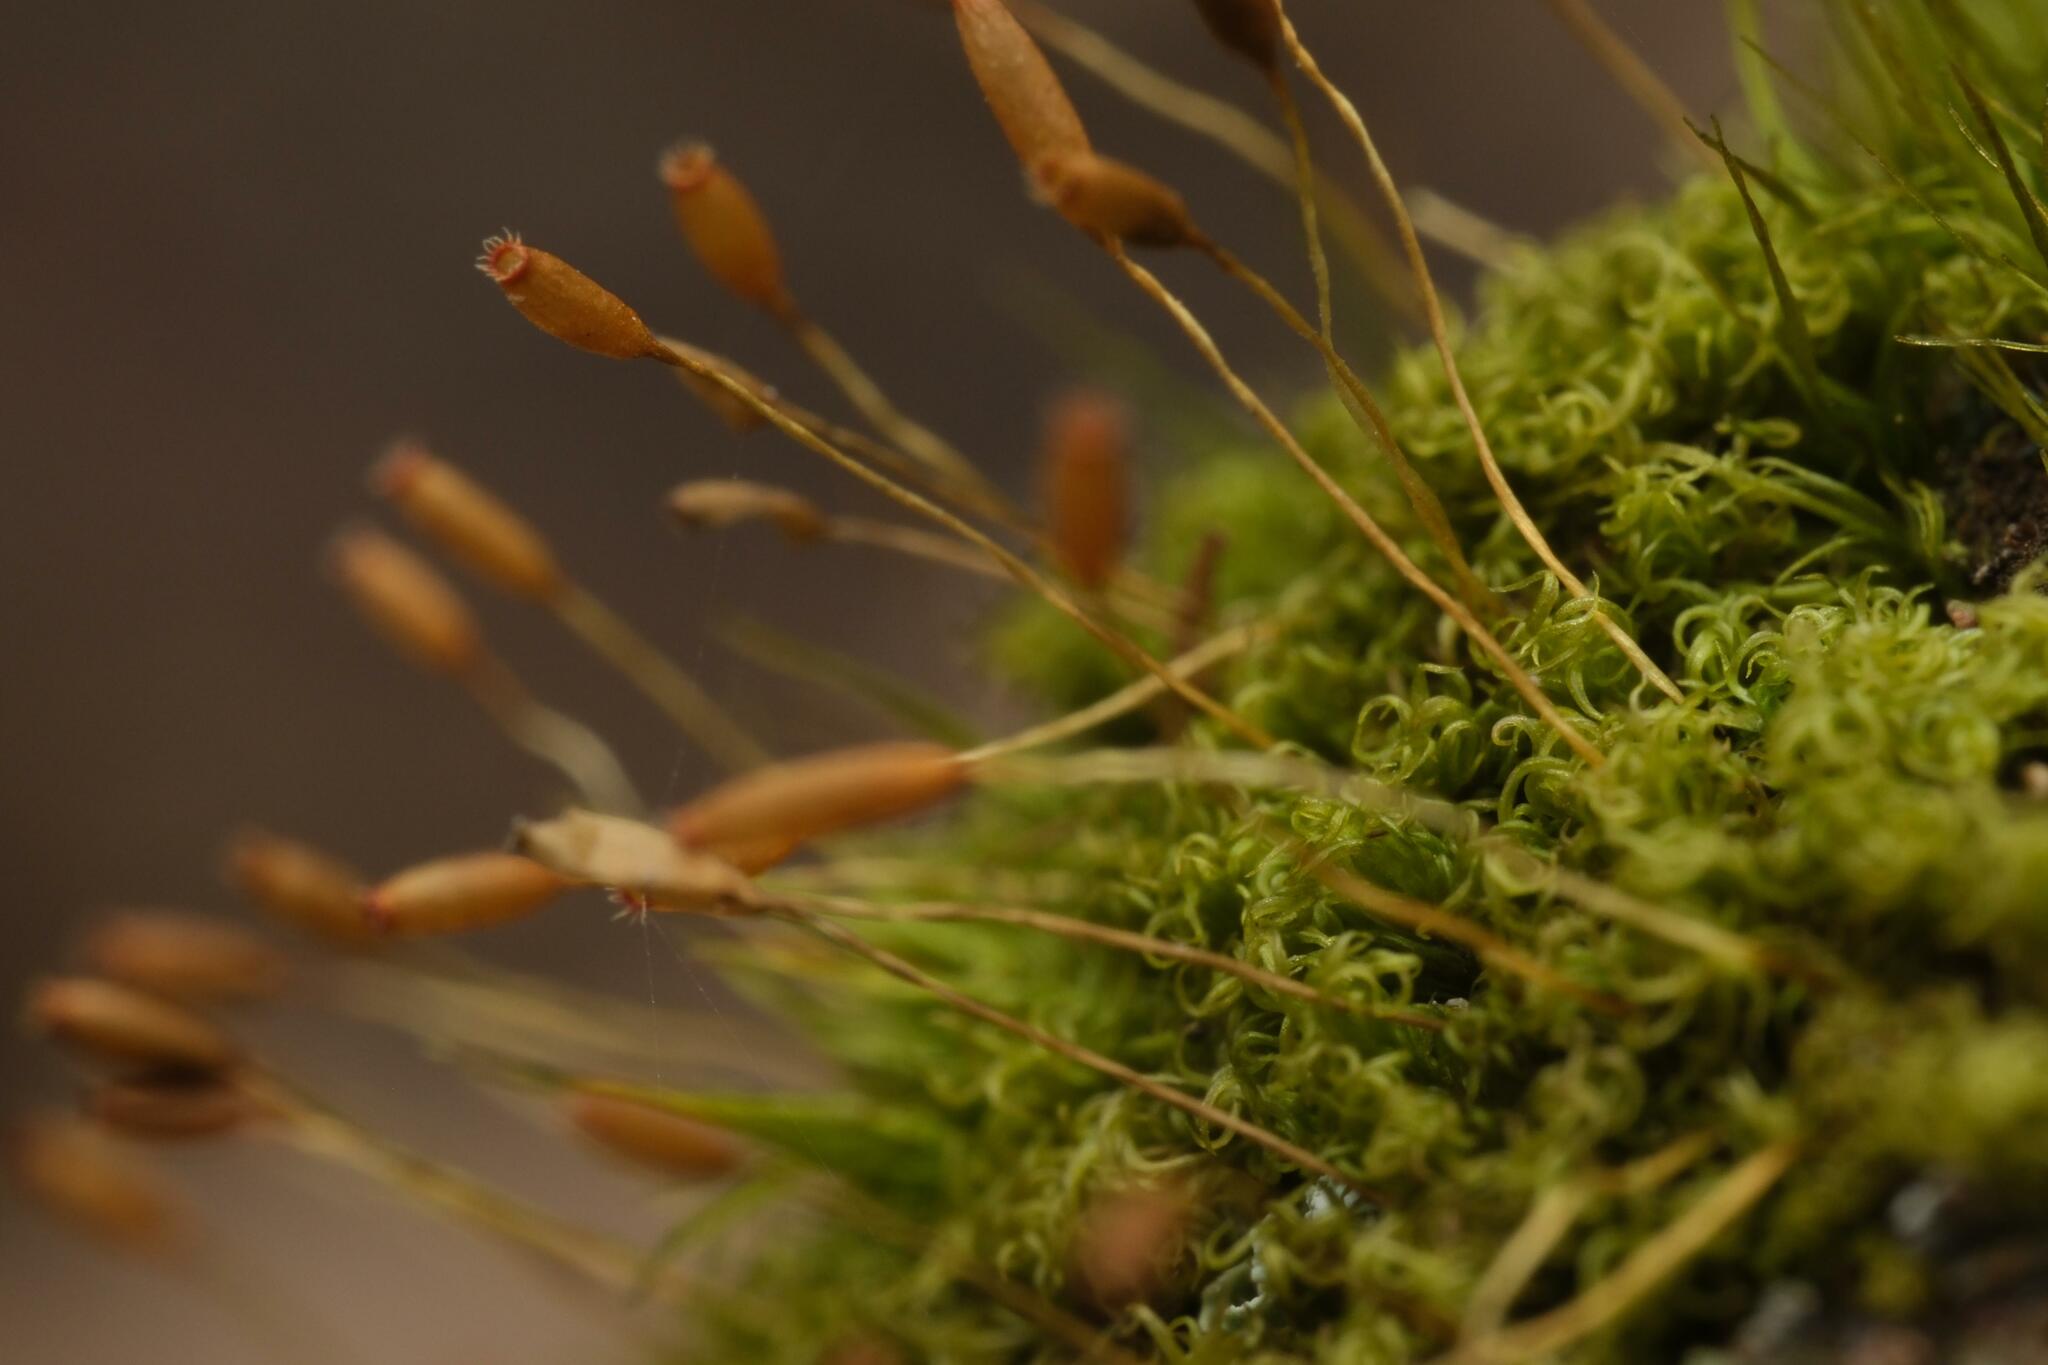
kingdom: Plantae
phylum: Bryophyta
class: Bryopsida
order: Dicranales
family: Rhabdoweisiaceae
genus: Dicranoweisia
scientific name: Dicranoweisia cirrata
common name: Common pincushion
